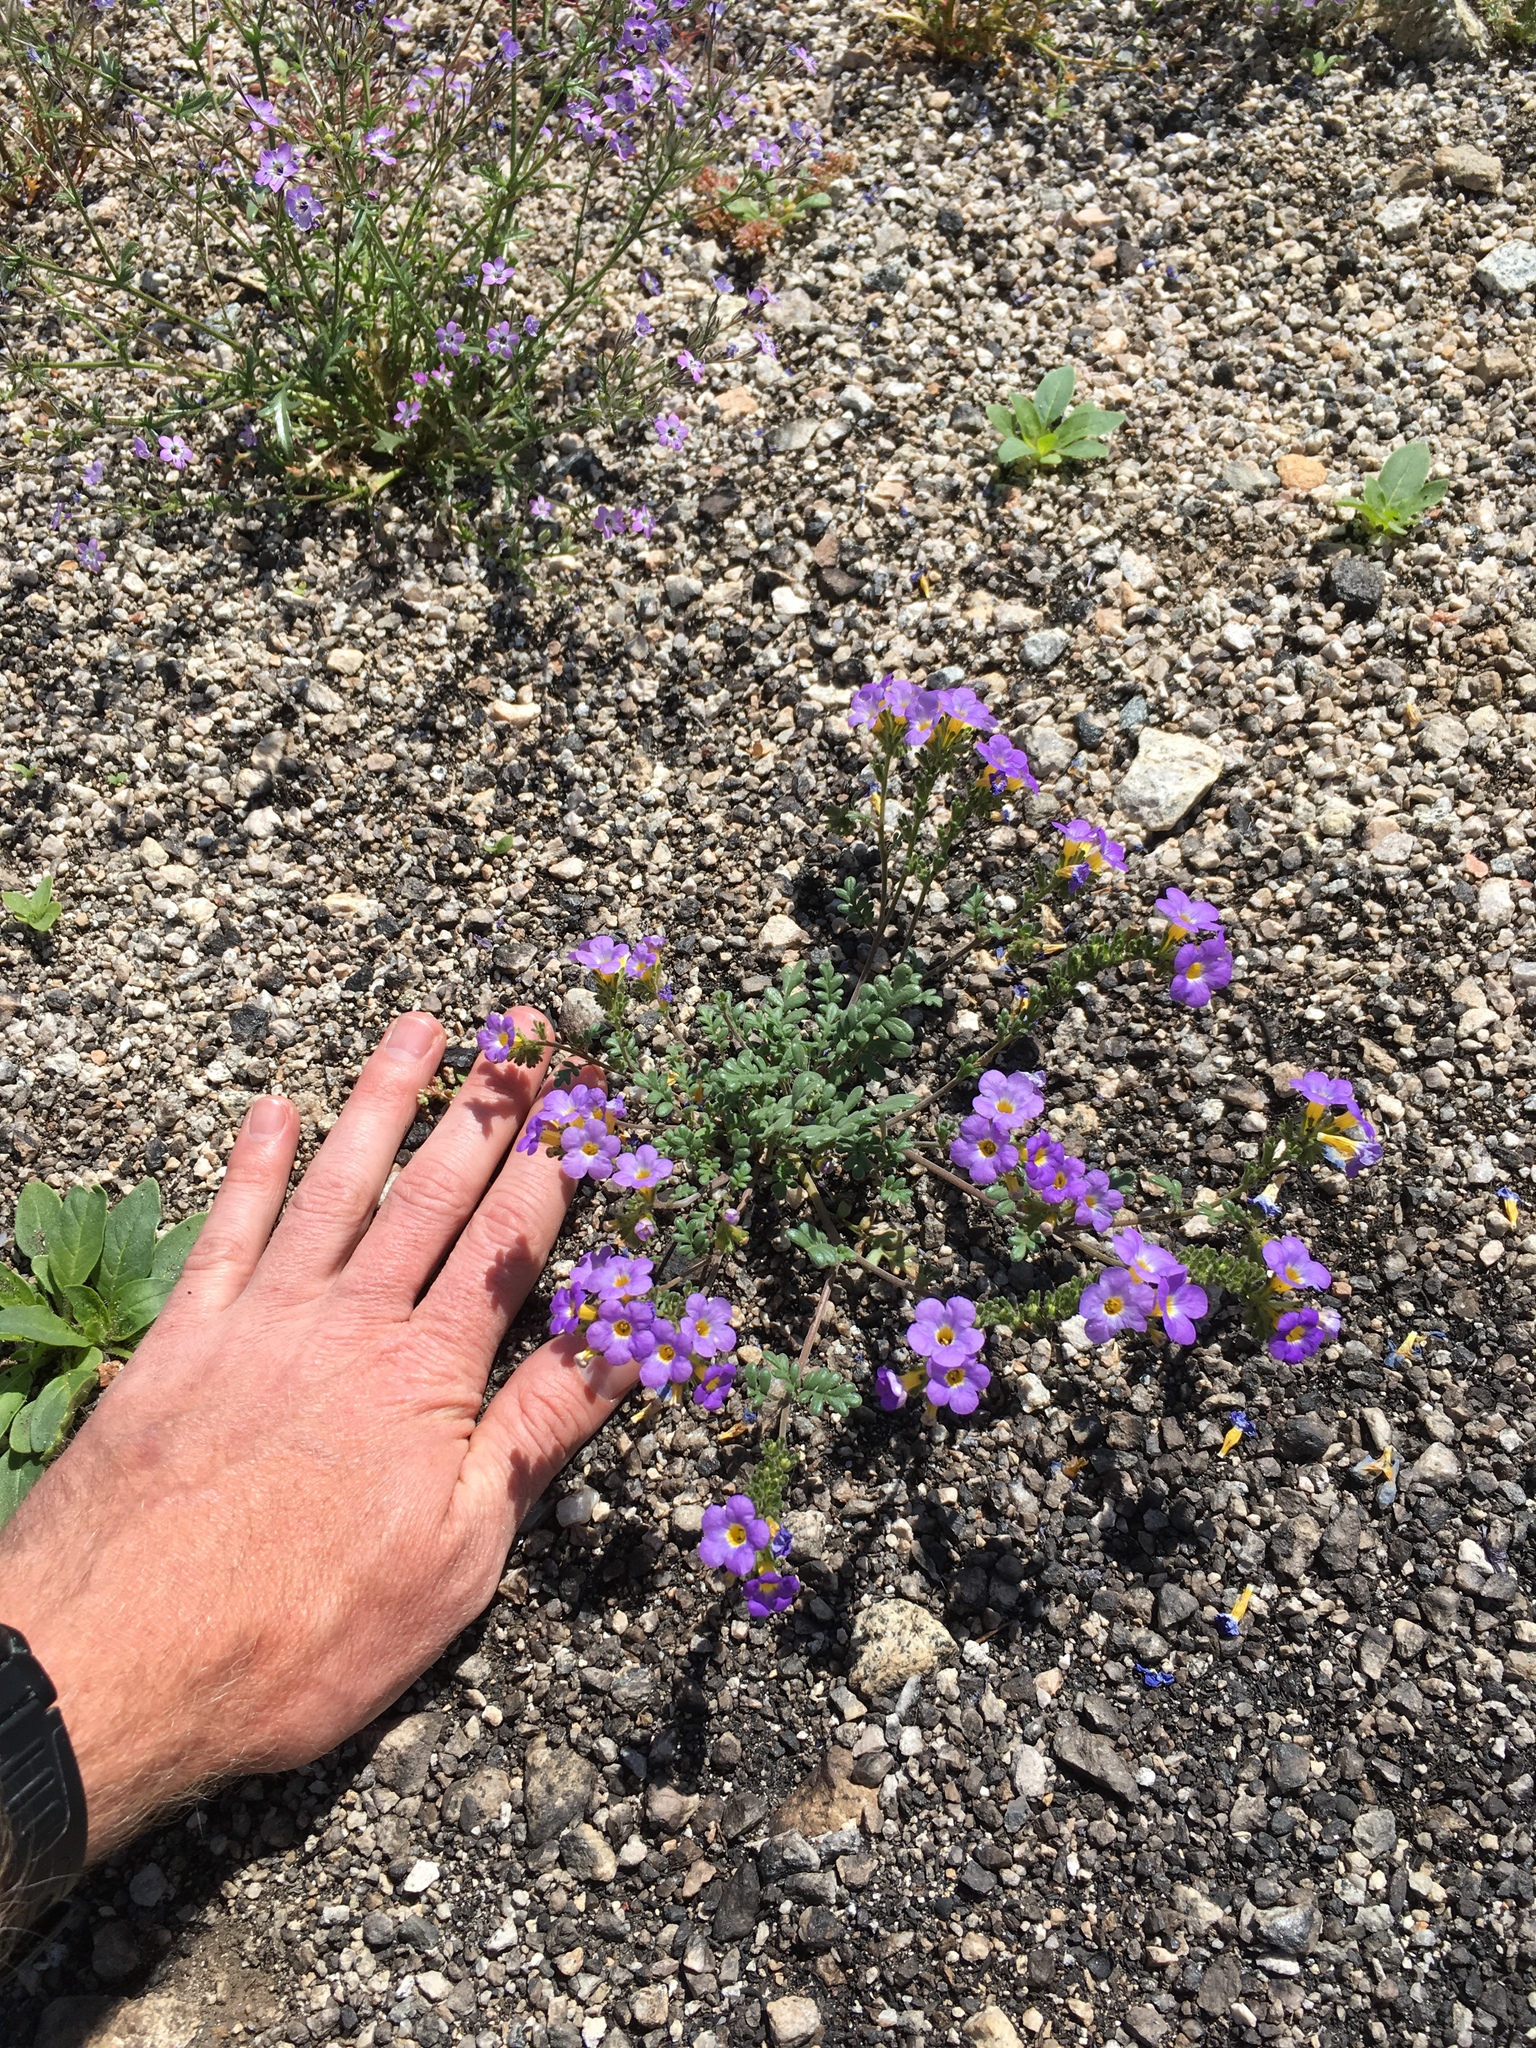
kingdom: Plantae
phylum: Tracheophyta
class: Magnoliopsida
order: Boraginales
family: Hydrophyllaceae
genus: Phacelia
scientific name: Phacelia fremontii
